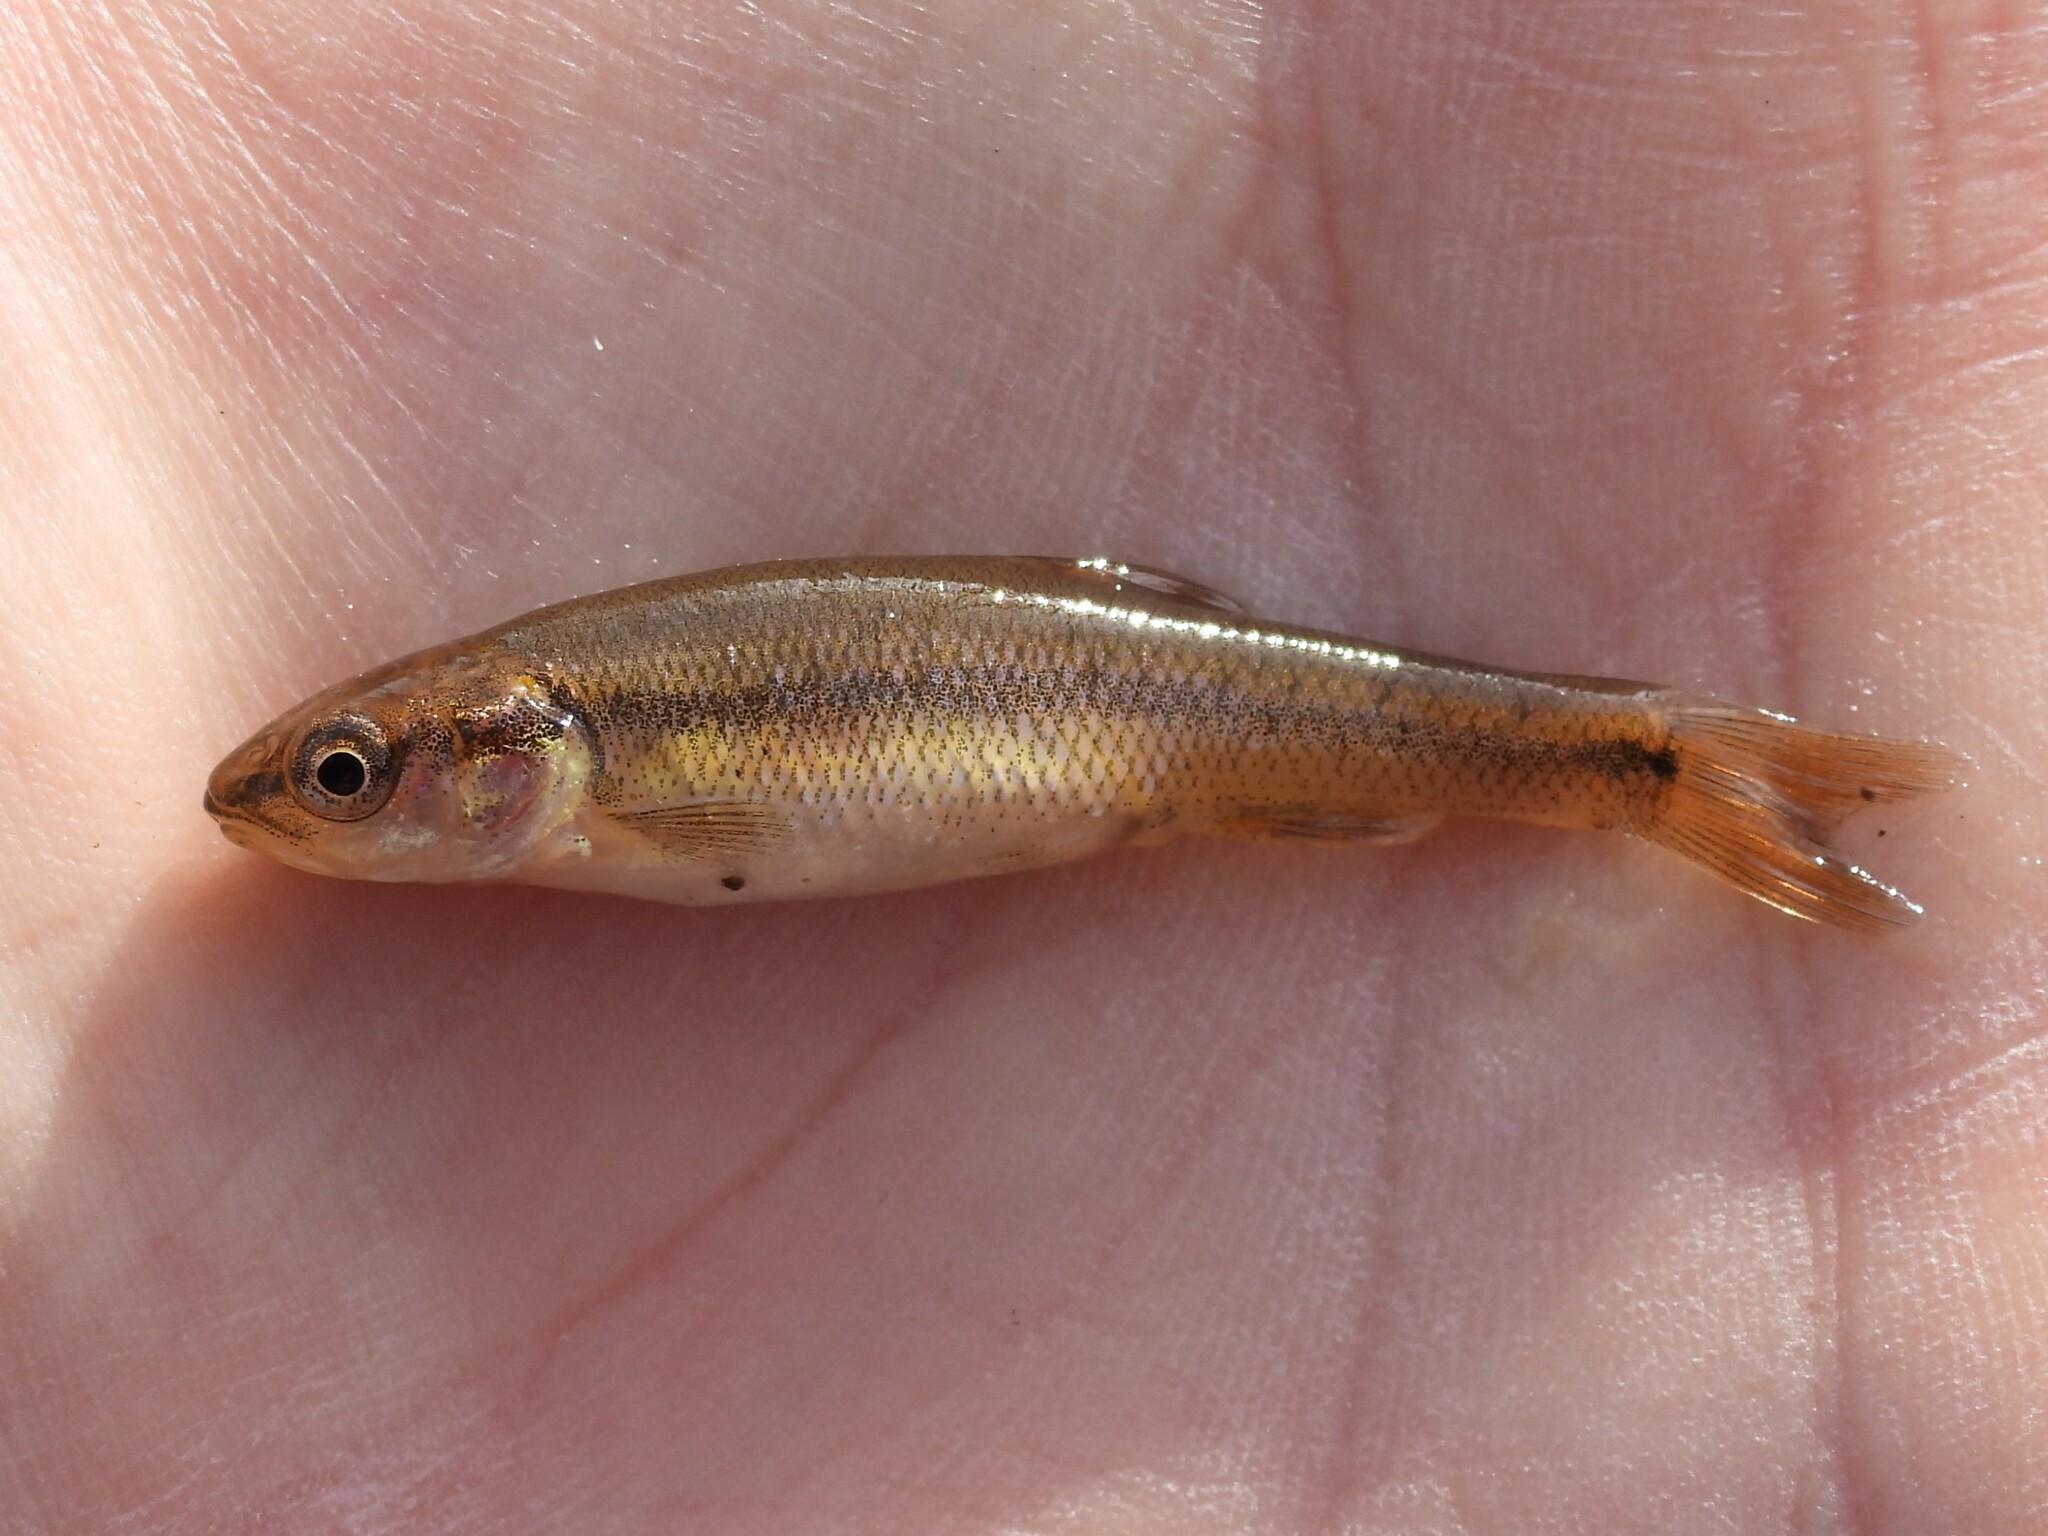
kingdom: Animalia
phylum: Chordata
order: Cypriniformes
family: Cyprinidae
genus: Semotilus
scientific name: Semotilus atromaculatus
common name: Creek chub
